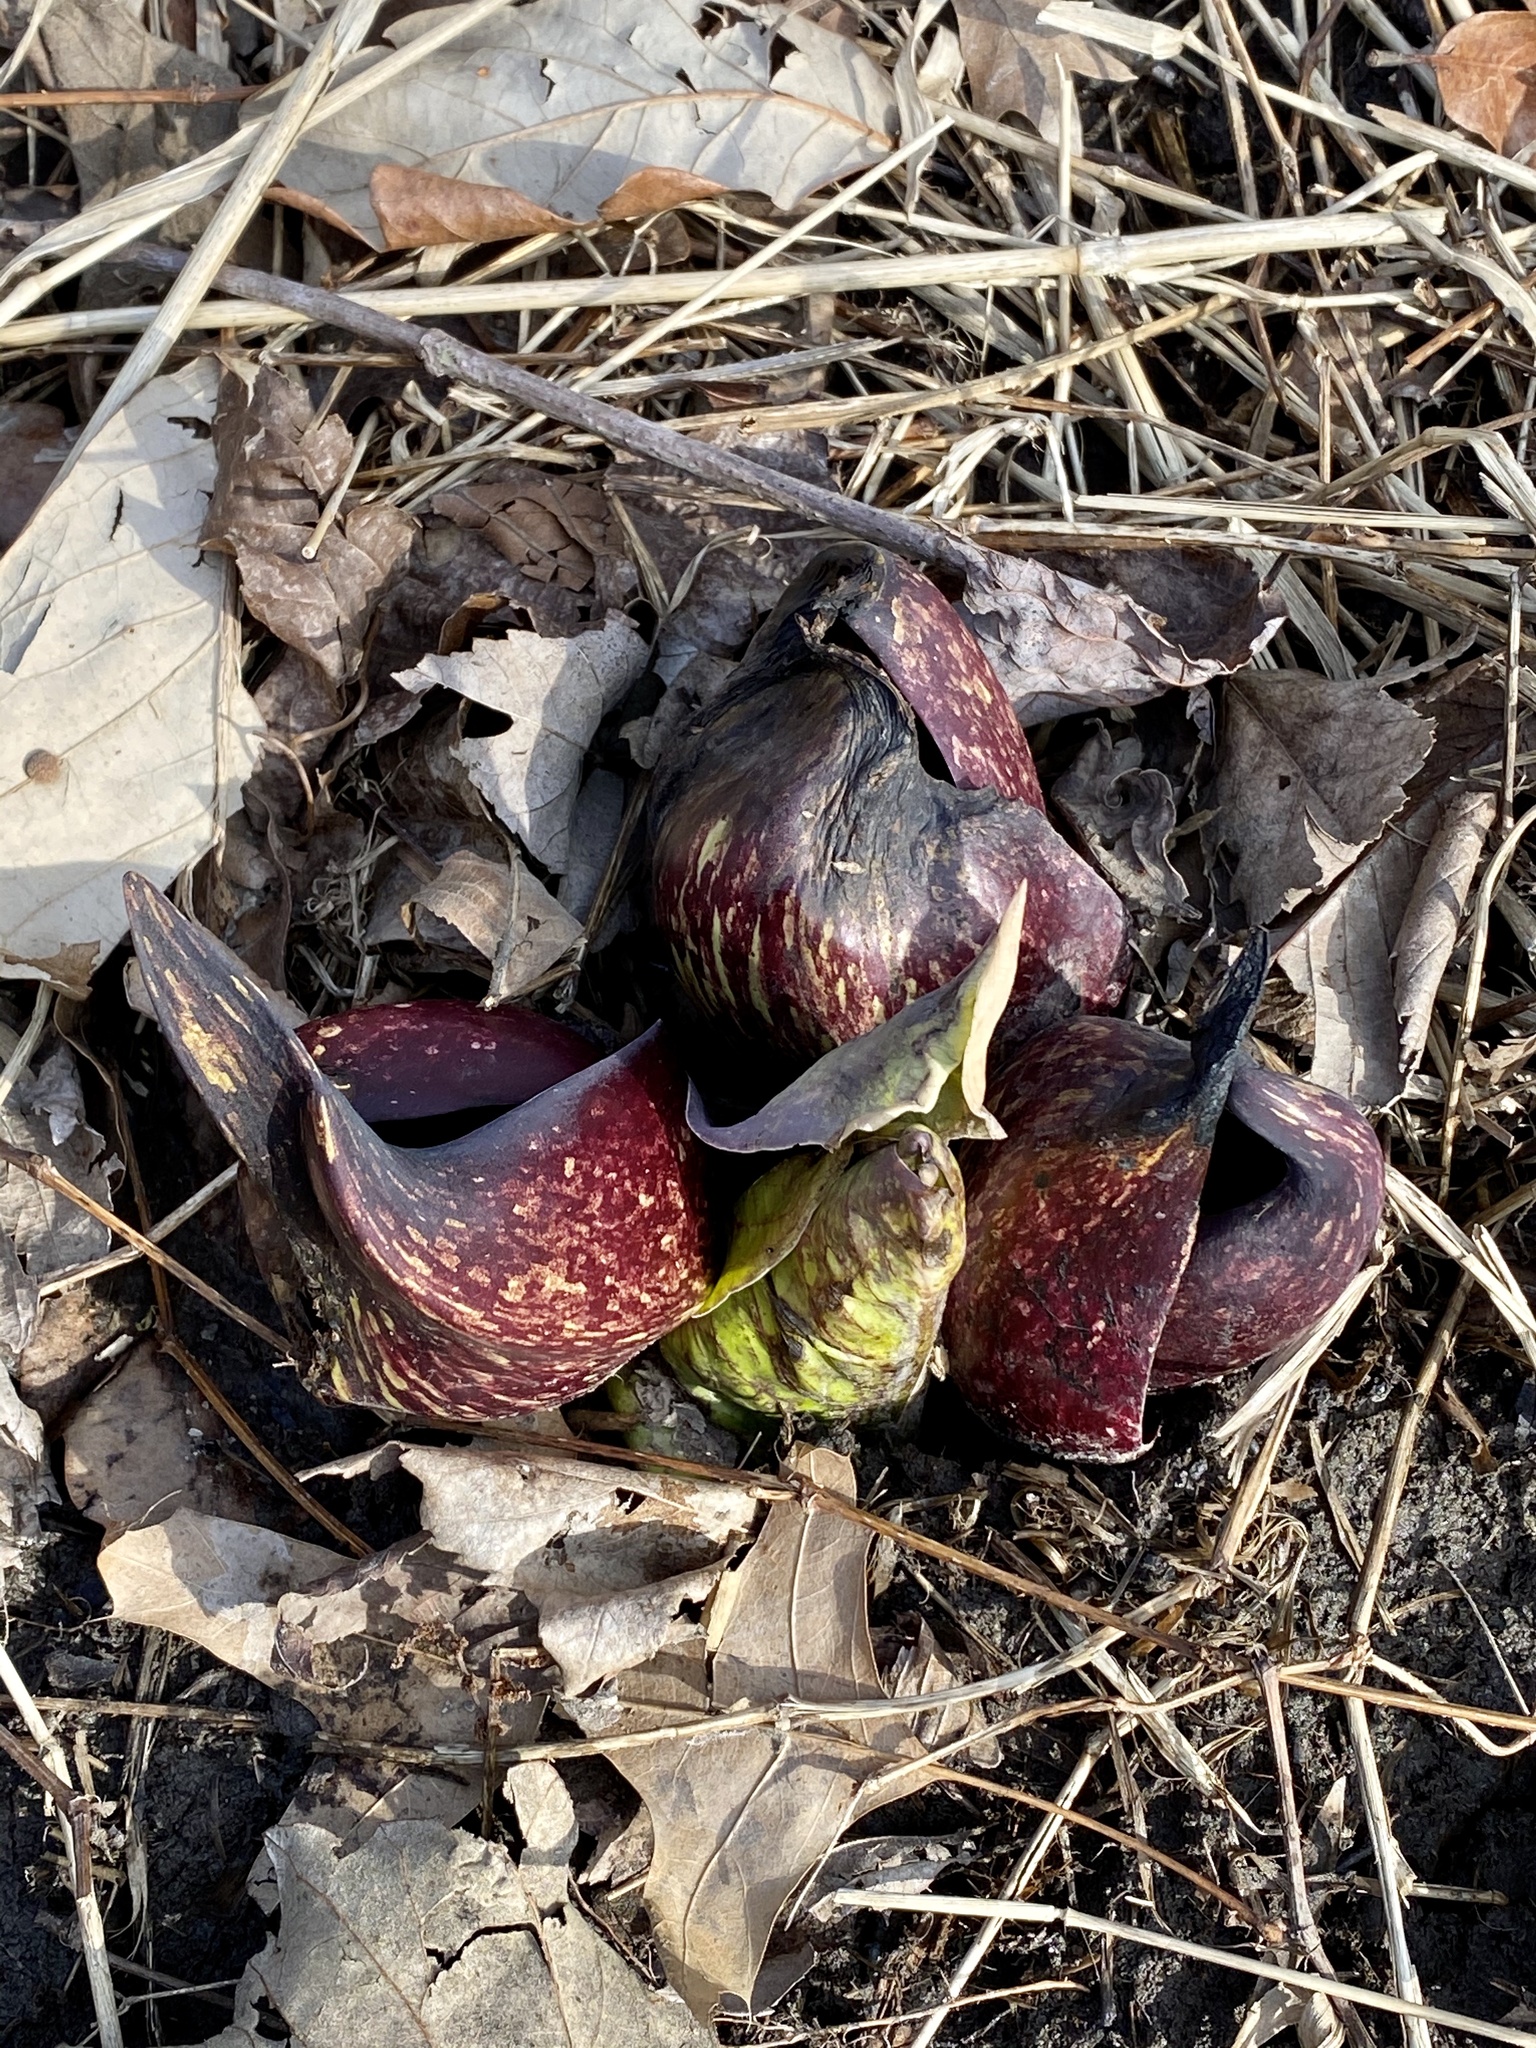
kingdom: Plantae
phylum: Tracheophyta
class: Liliopsida
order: Alismatales
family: Araceae
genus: Symplocarpus
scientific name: Symplocarpus foetidus
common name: Eastern skunk cabbage
